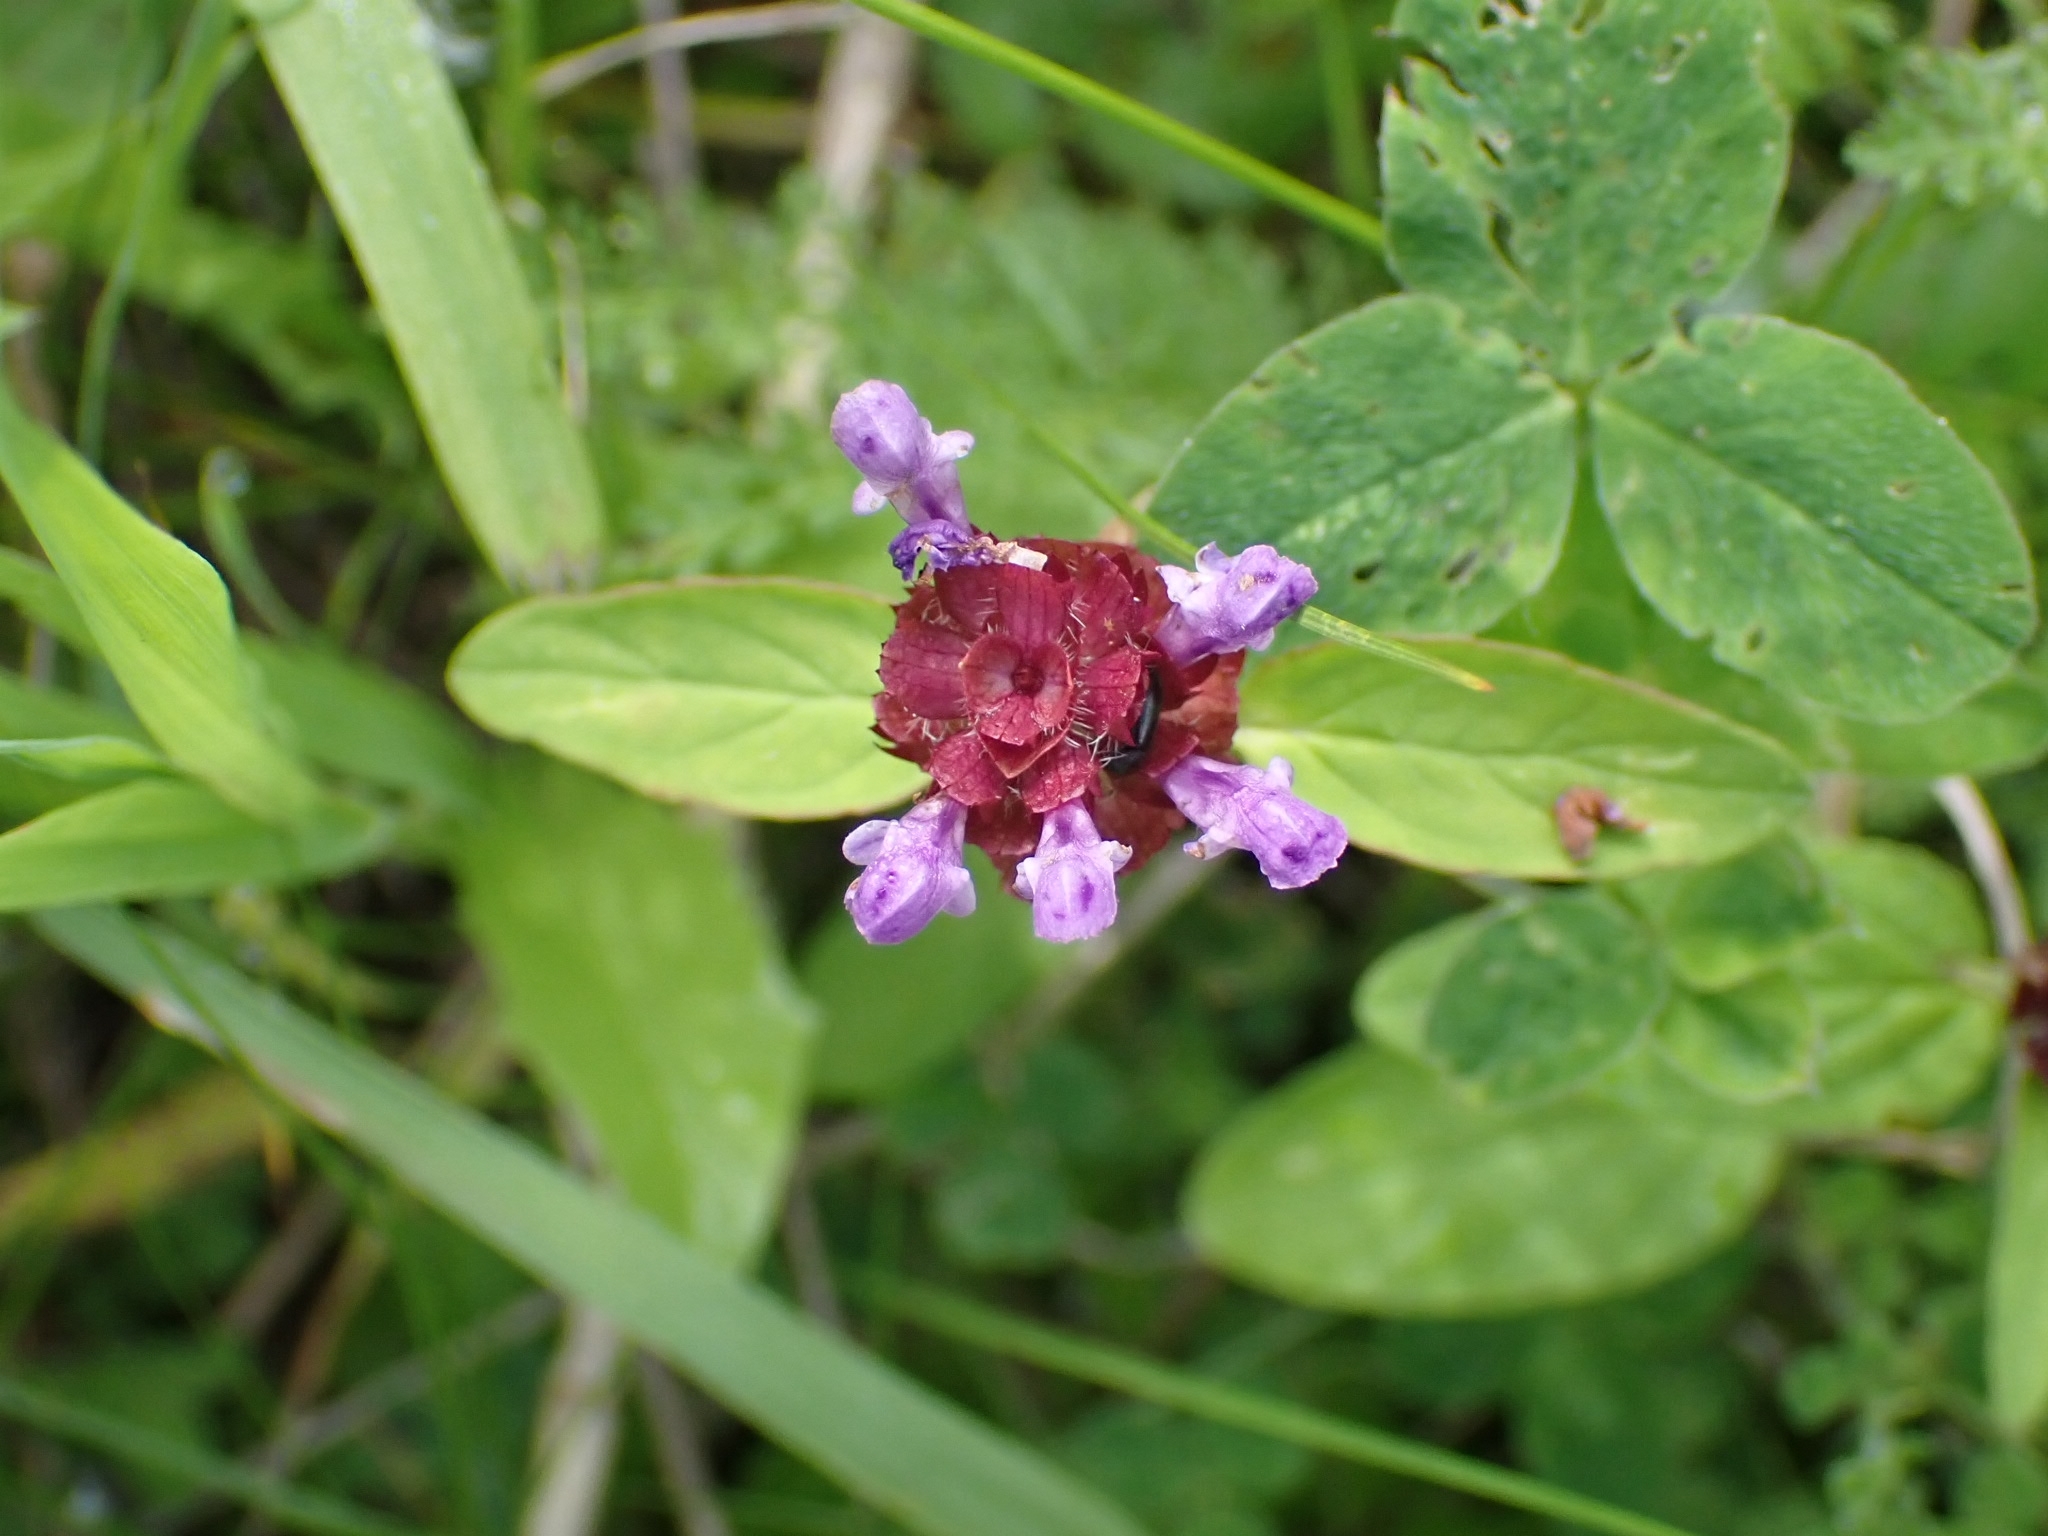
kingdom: Plantae
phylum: Tracheophyta
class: Magnoliopsida
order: Lamiales
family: Lamiaceae
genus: Prunella
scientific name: Prunella vulgaris
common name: Heal-all
